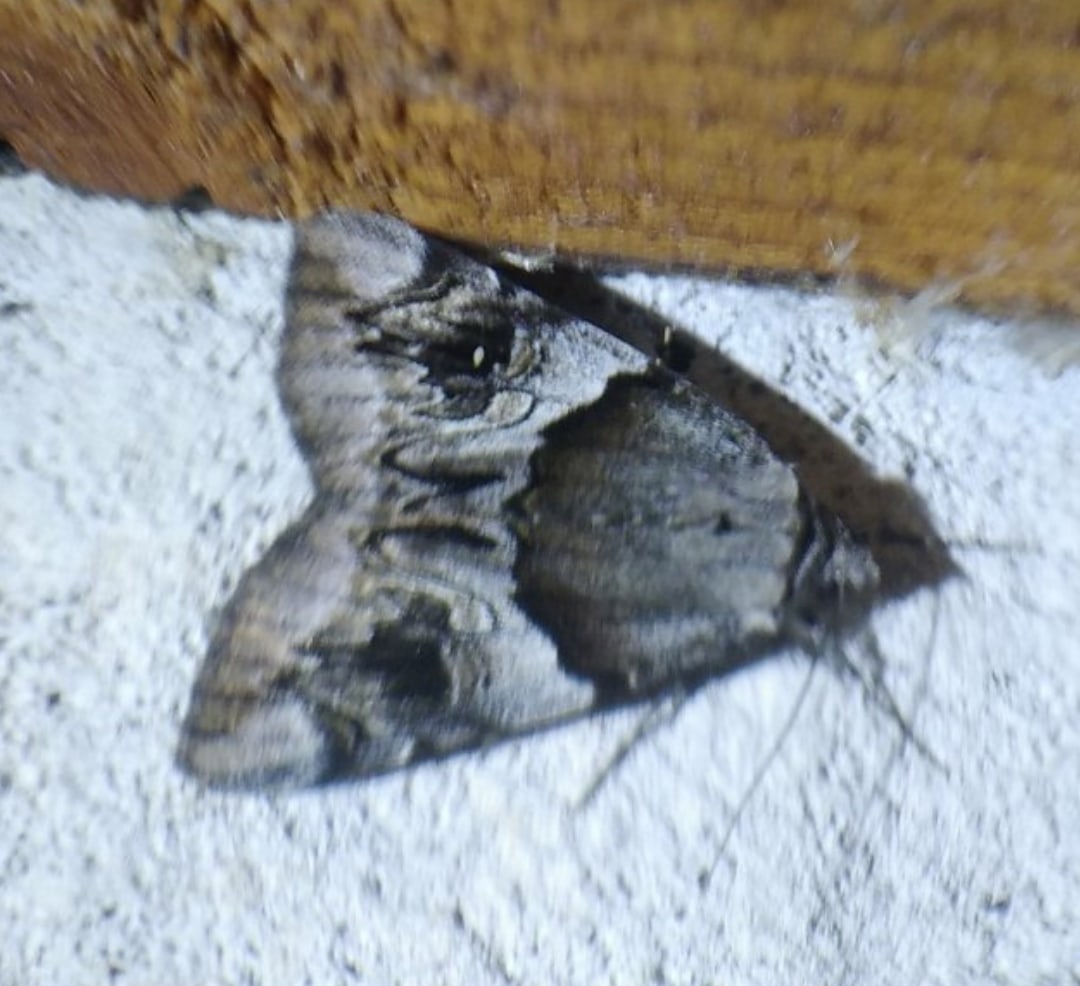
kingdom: Animalia
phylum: Arthropoda
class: Insecta
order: Lepidoptera
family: Erebidae
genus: Catocala
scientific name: Catocala fulminea
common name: Yellow bands underwing
